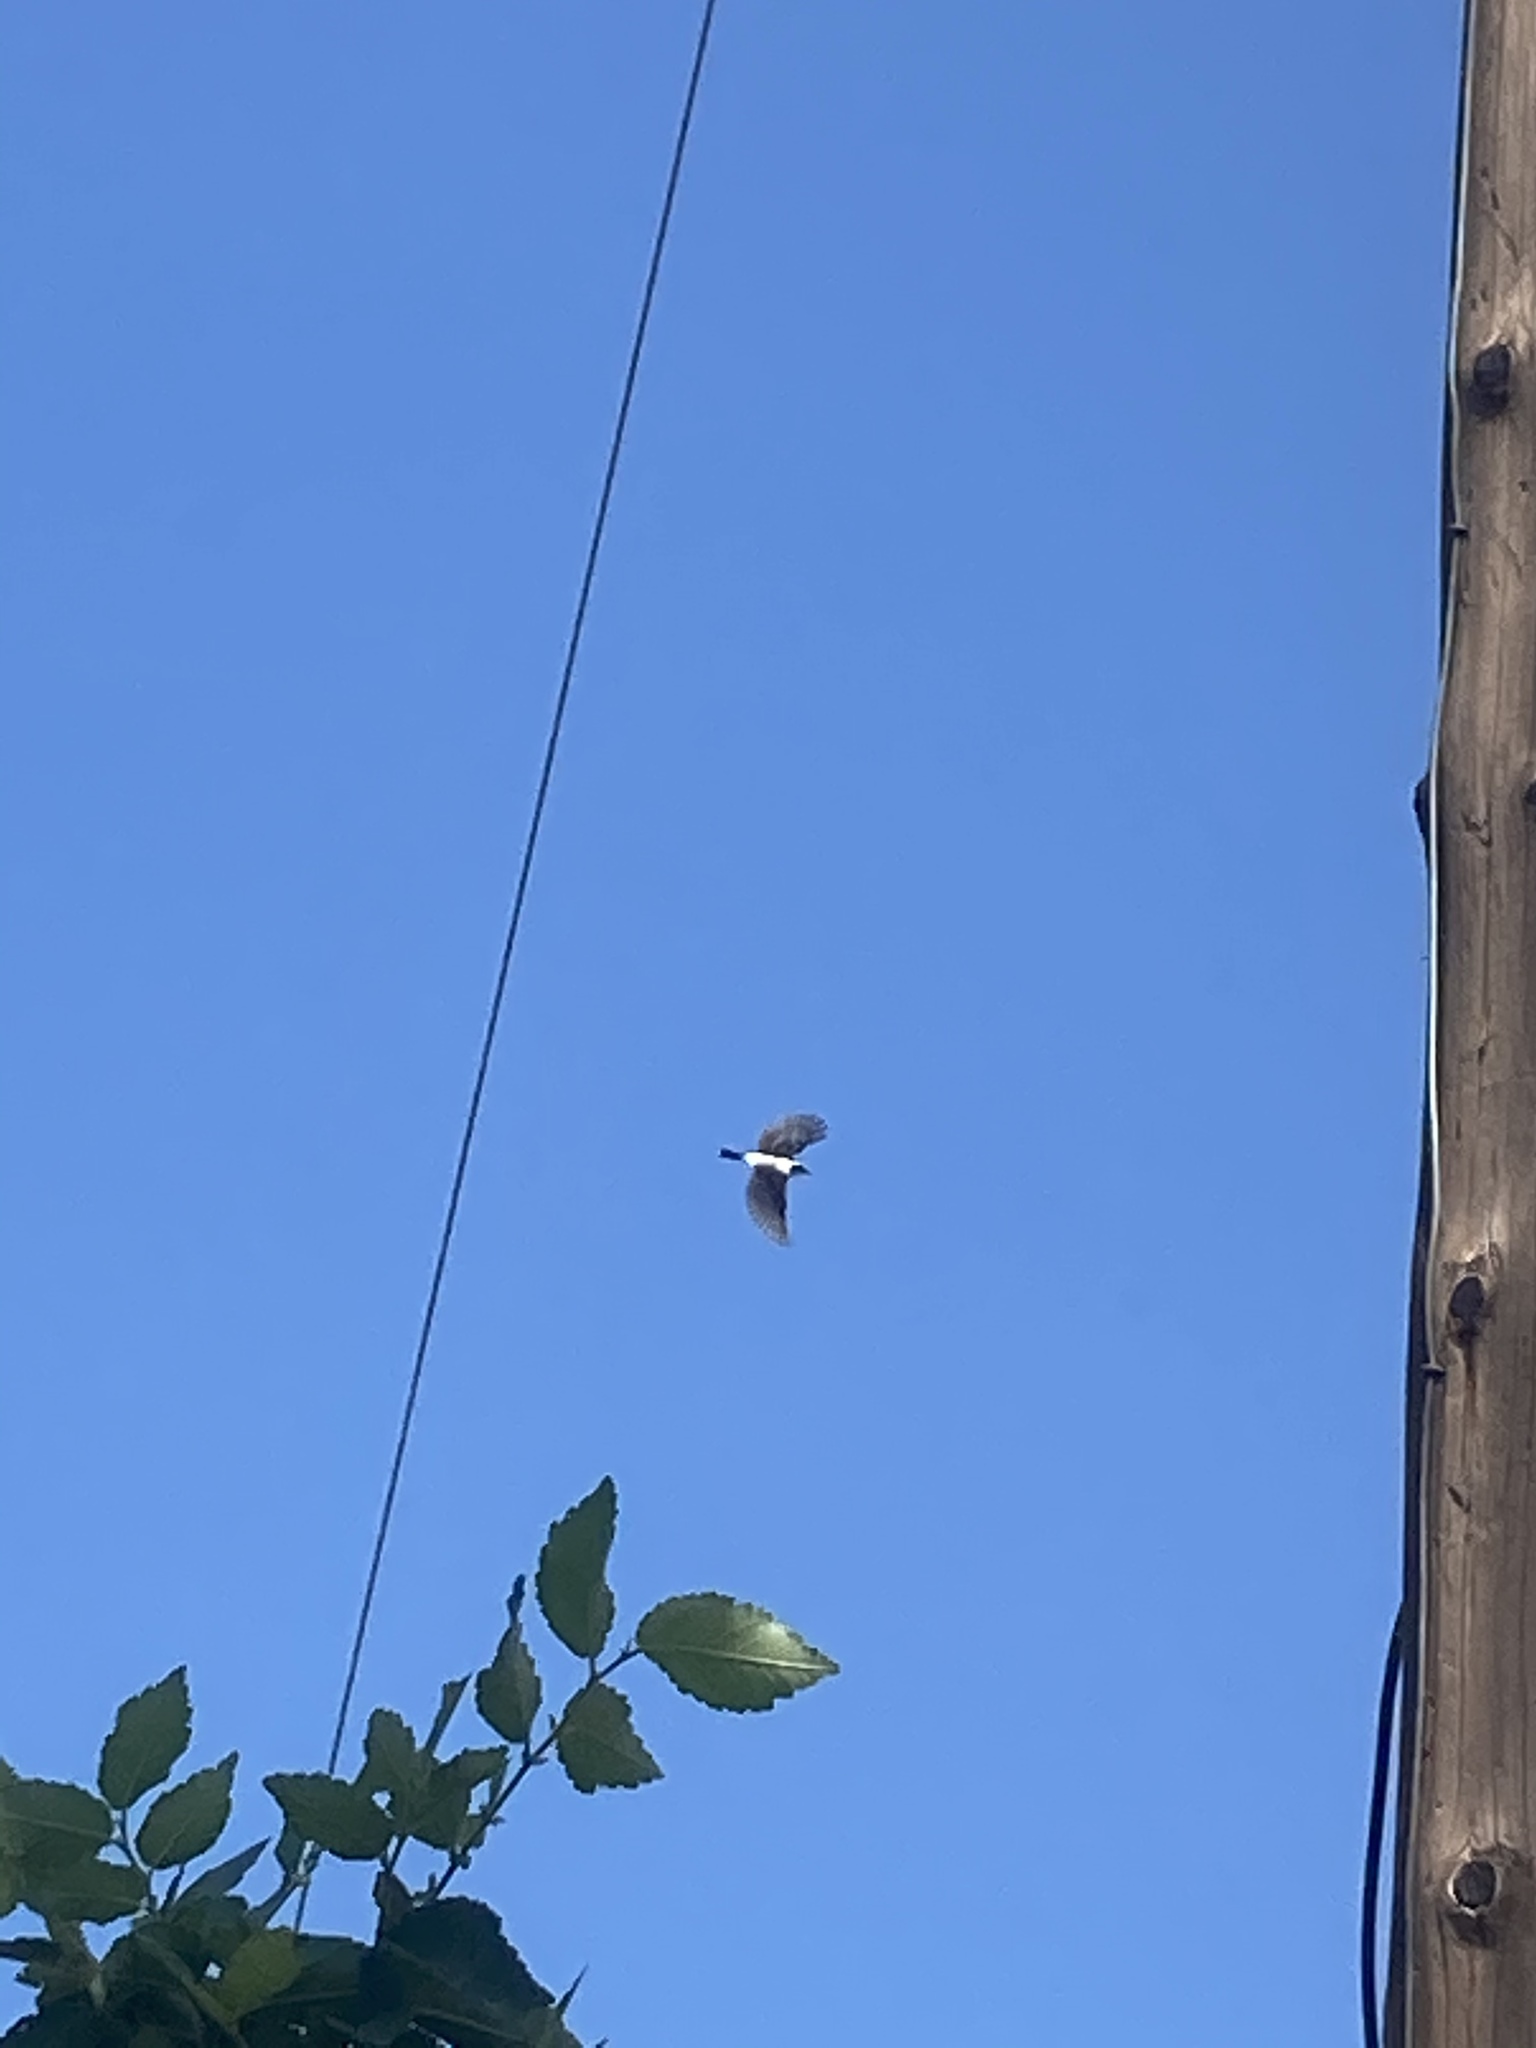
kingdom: Animalia
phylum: Chordata
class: Aves
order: Passeriformes
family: Muscicapidae
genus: Oenanthe
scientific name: Oenanthe hispanica
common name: Black-eared wheatear
